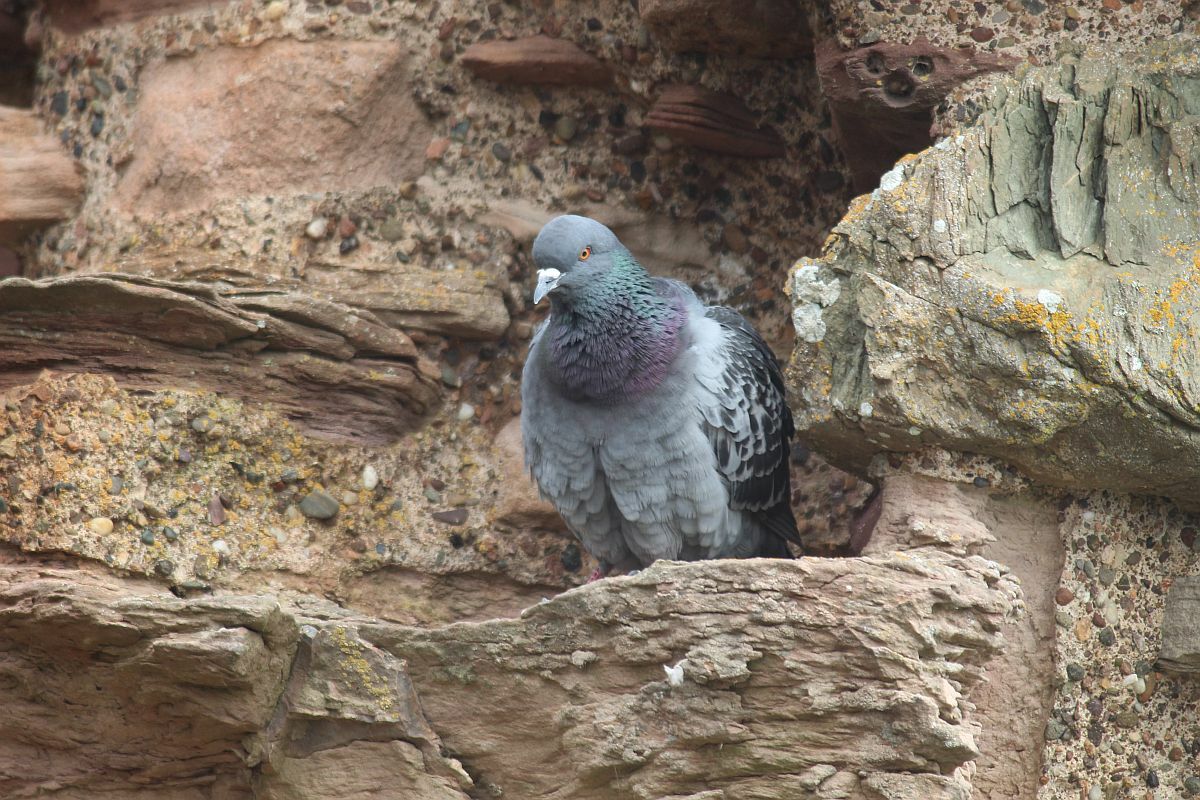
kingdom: Animalia
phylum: Chordata
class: Aves
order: Columbiformes
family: Columbidae
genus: Columba
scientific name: Columba livia
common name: Rock pigeon
